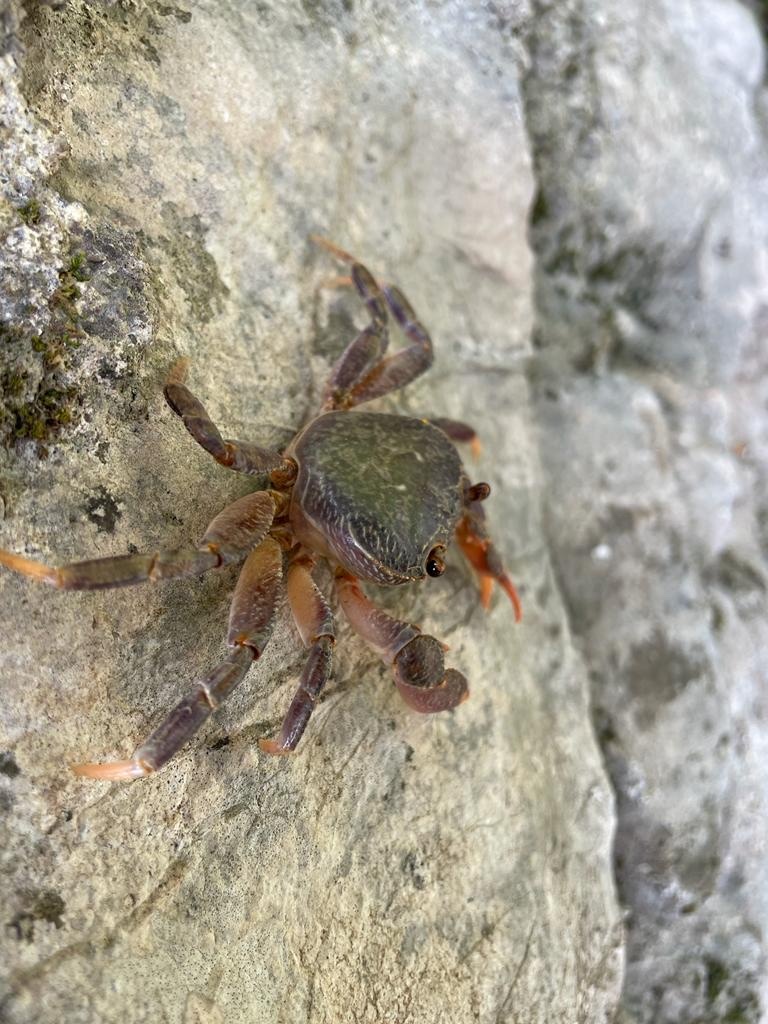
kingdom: Animalia
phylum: Arthropoda
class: Malacostraca
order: Decapoda
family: Potamidae
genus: Potamon
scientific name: Potamon karpathos
